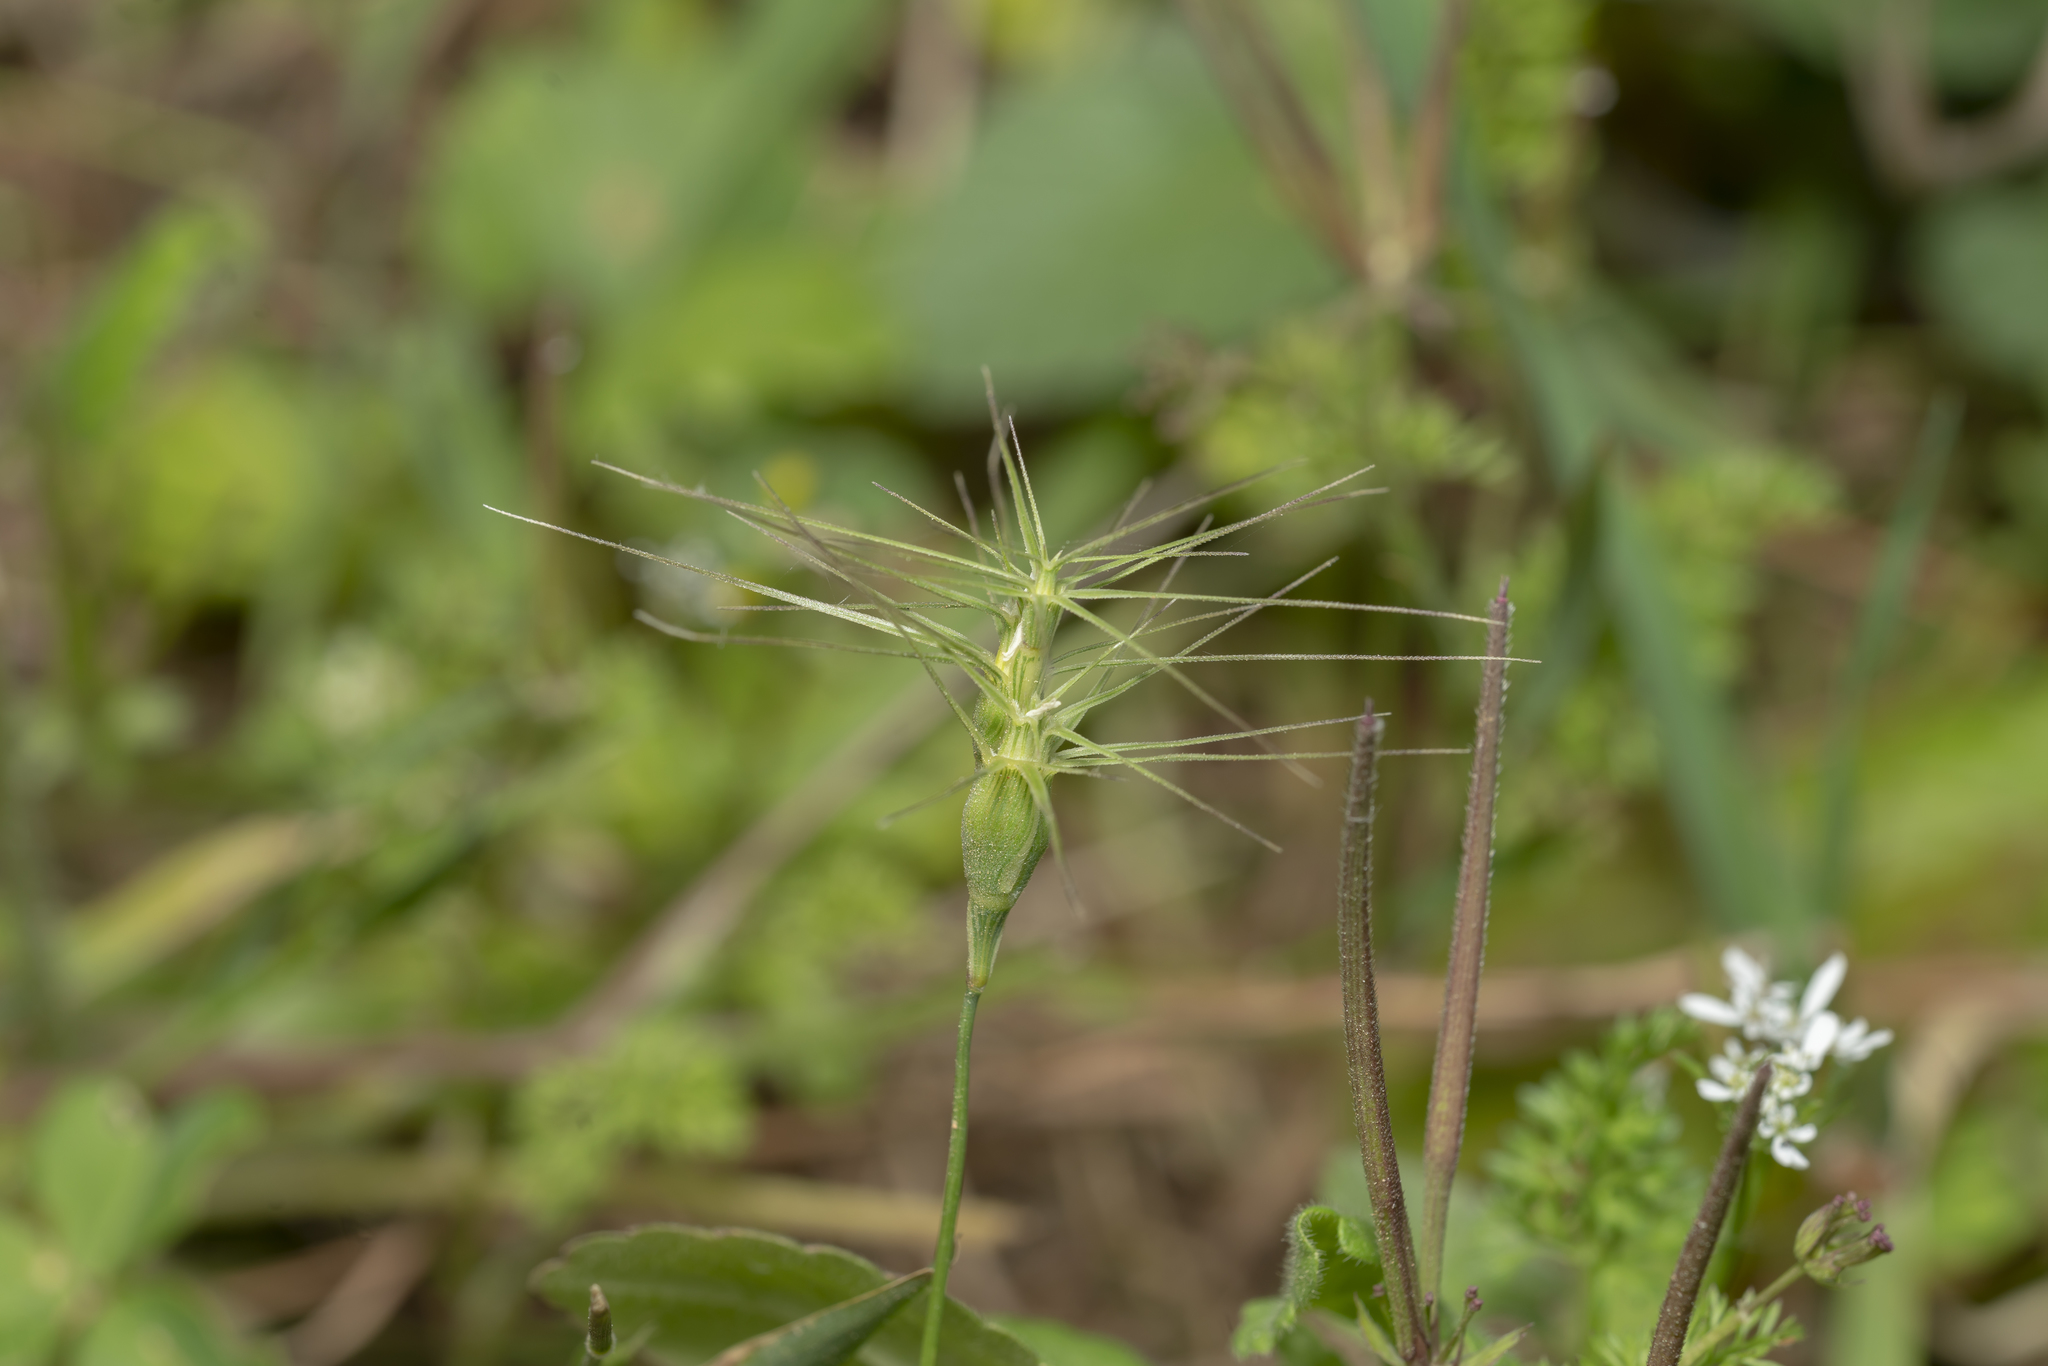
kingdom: Plantae
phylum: Tracheophyta
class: Liliopsida
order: Poales
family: Poaceae
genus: Aegilops
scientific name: Aegilops geniculata
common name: Ovate goat grass
